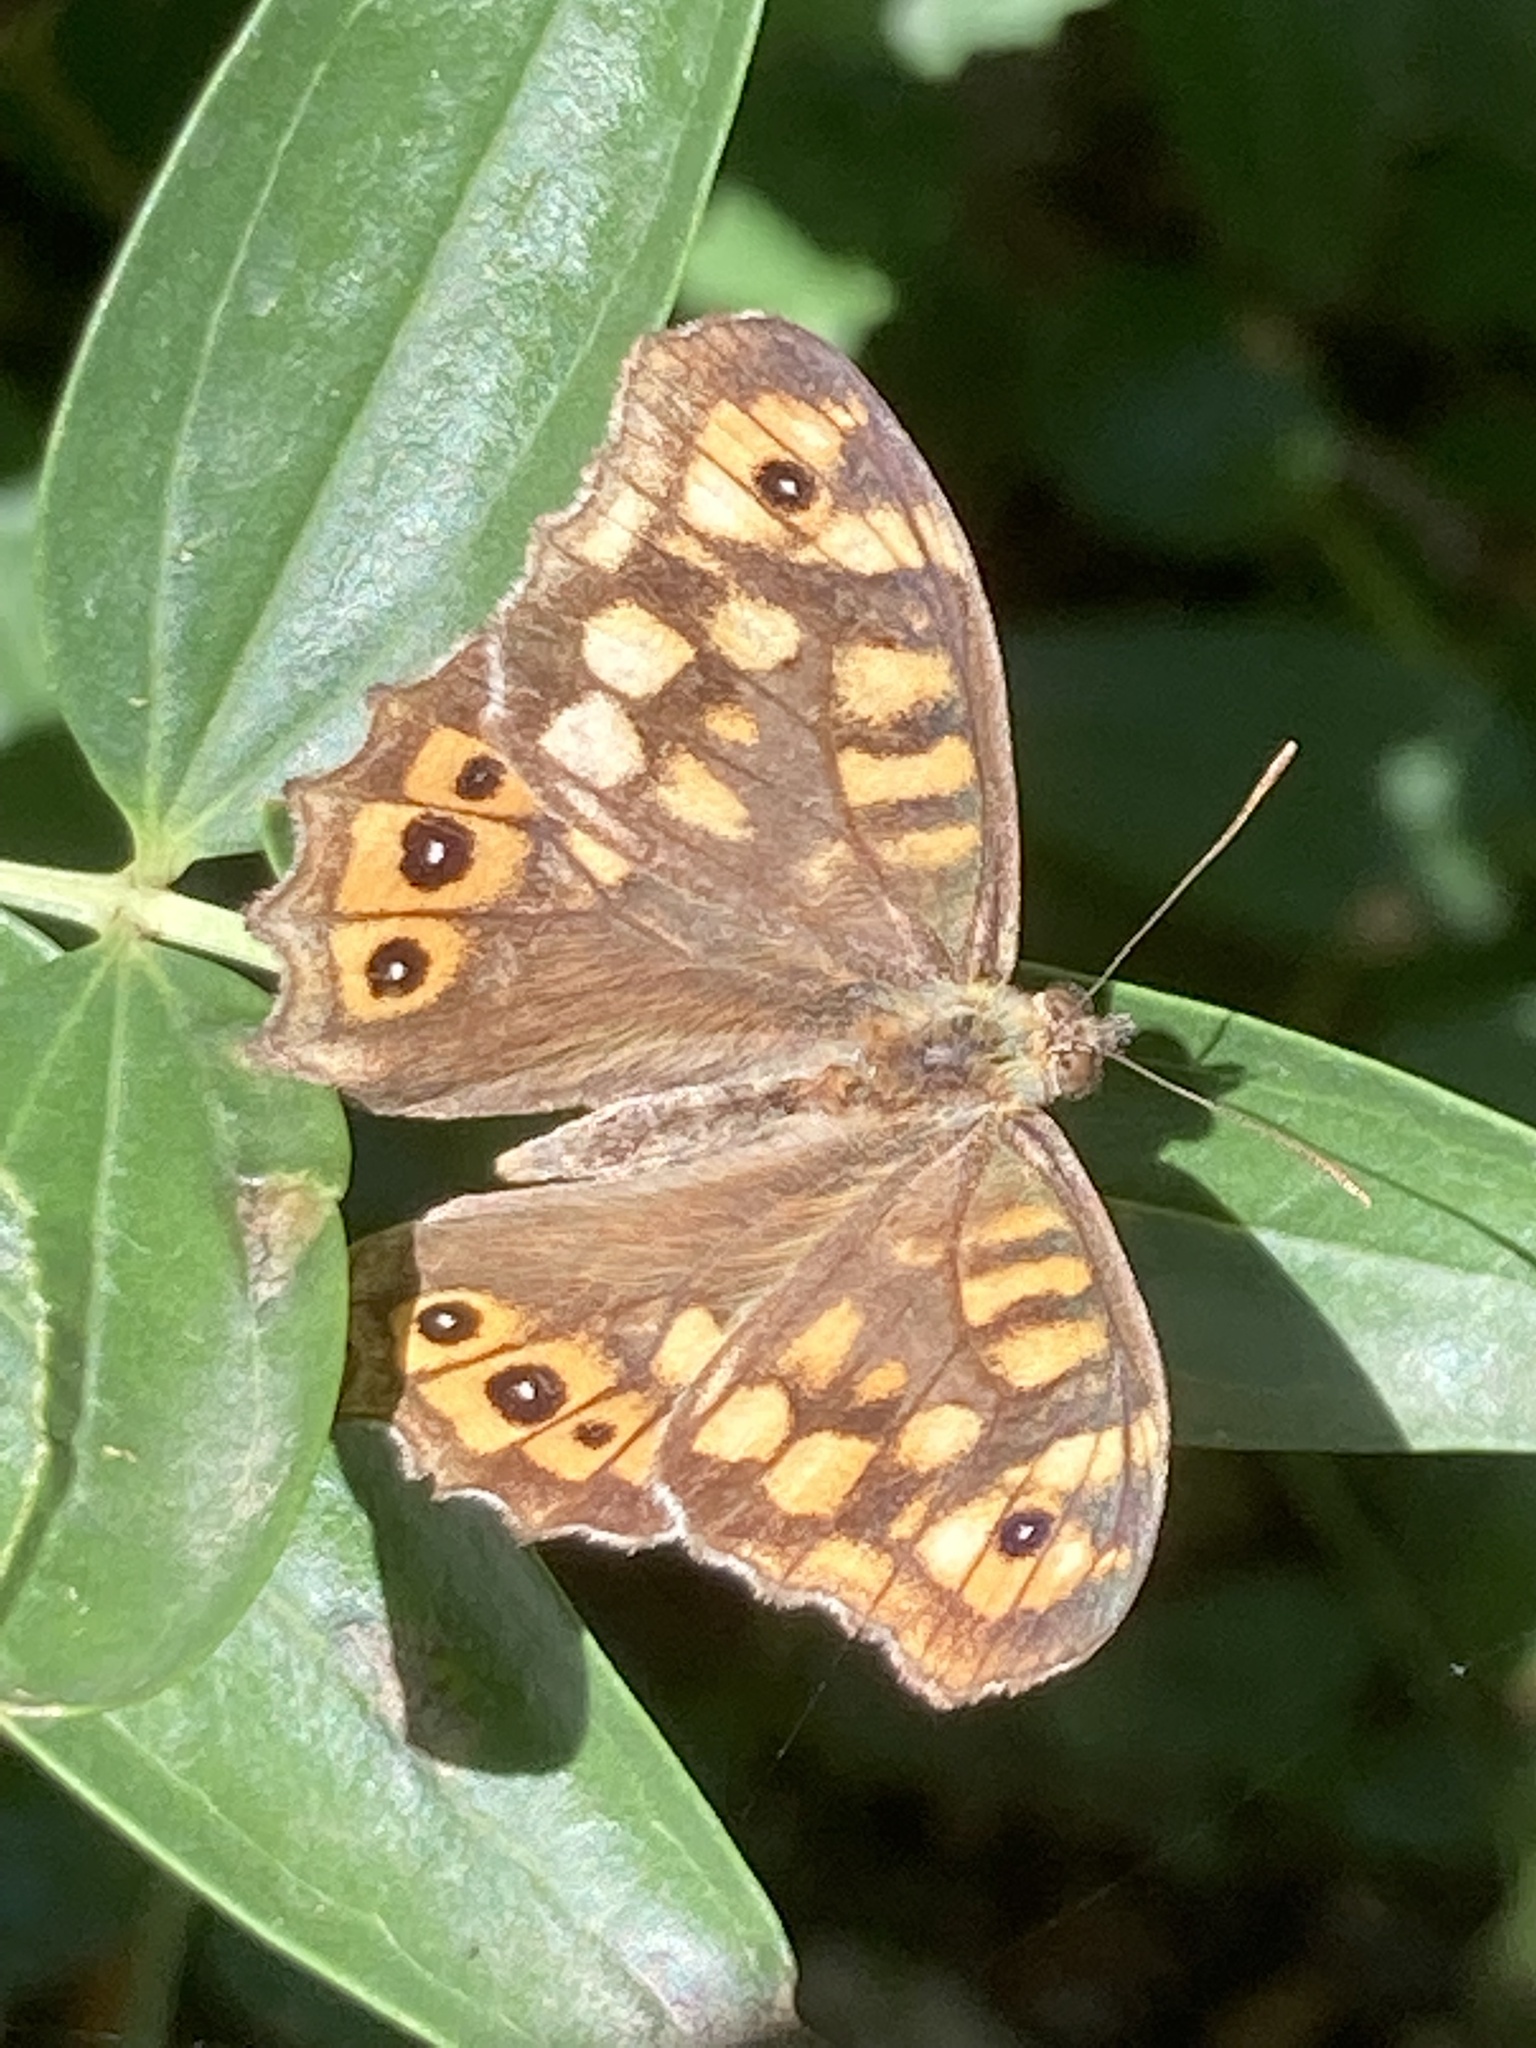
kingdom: Animalia
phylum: Arthropoda
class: Insecta
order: Lepidoptera
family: Nymphalidae
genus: Pararge
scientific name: Pararge aegeria
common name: Speckled wood
